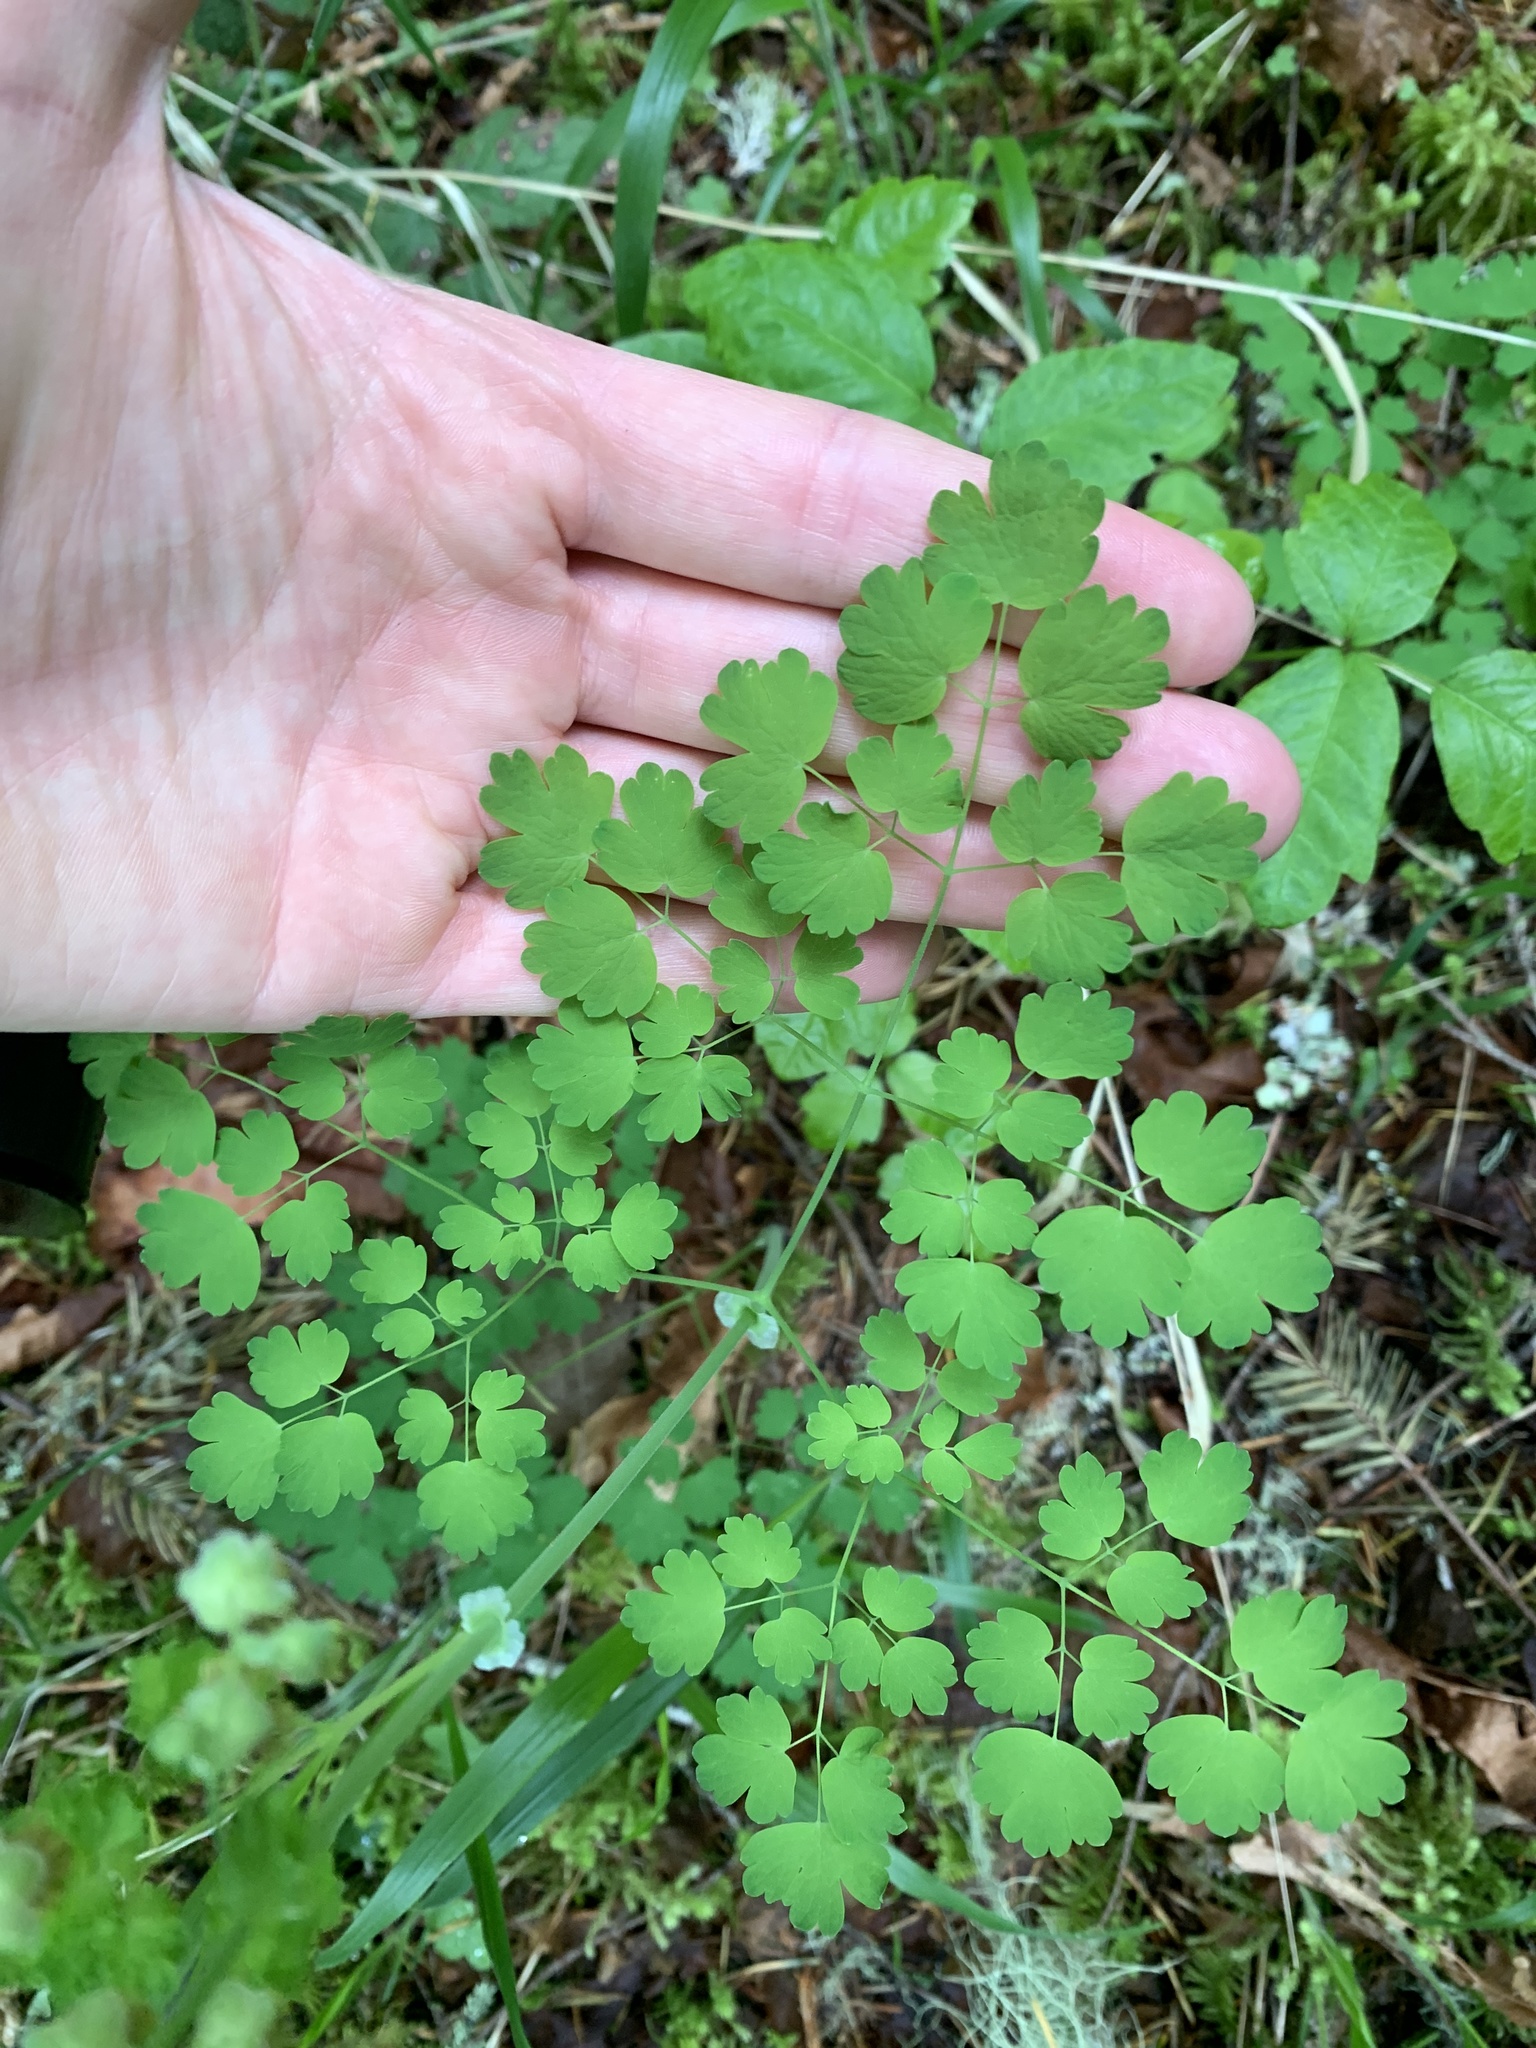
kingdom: Plantae
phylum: Tracheophyta
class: Magnoliopsida
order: Ranunculales
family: Ranunculaceae
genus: Thalictrum
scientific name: Thalictrum occidentale
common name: Western meadow-rue
